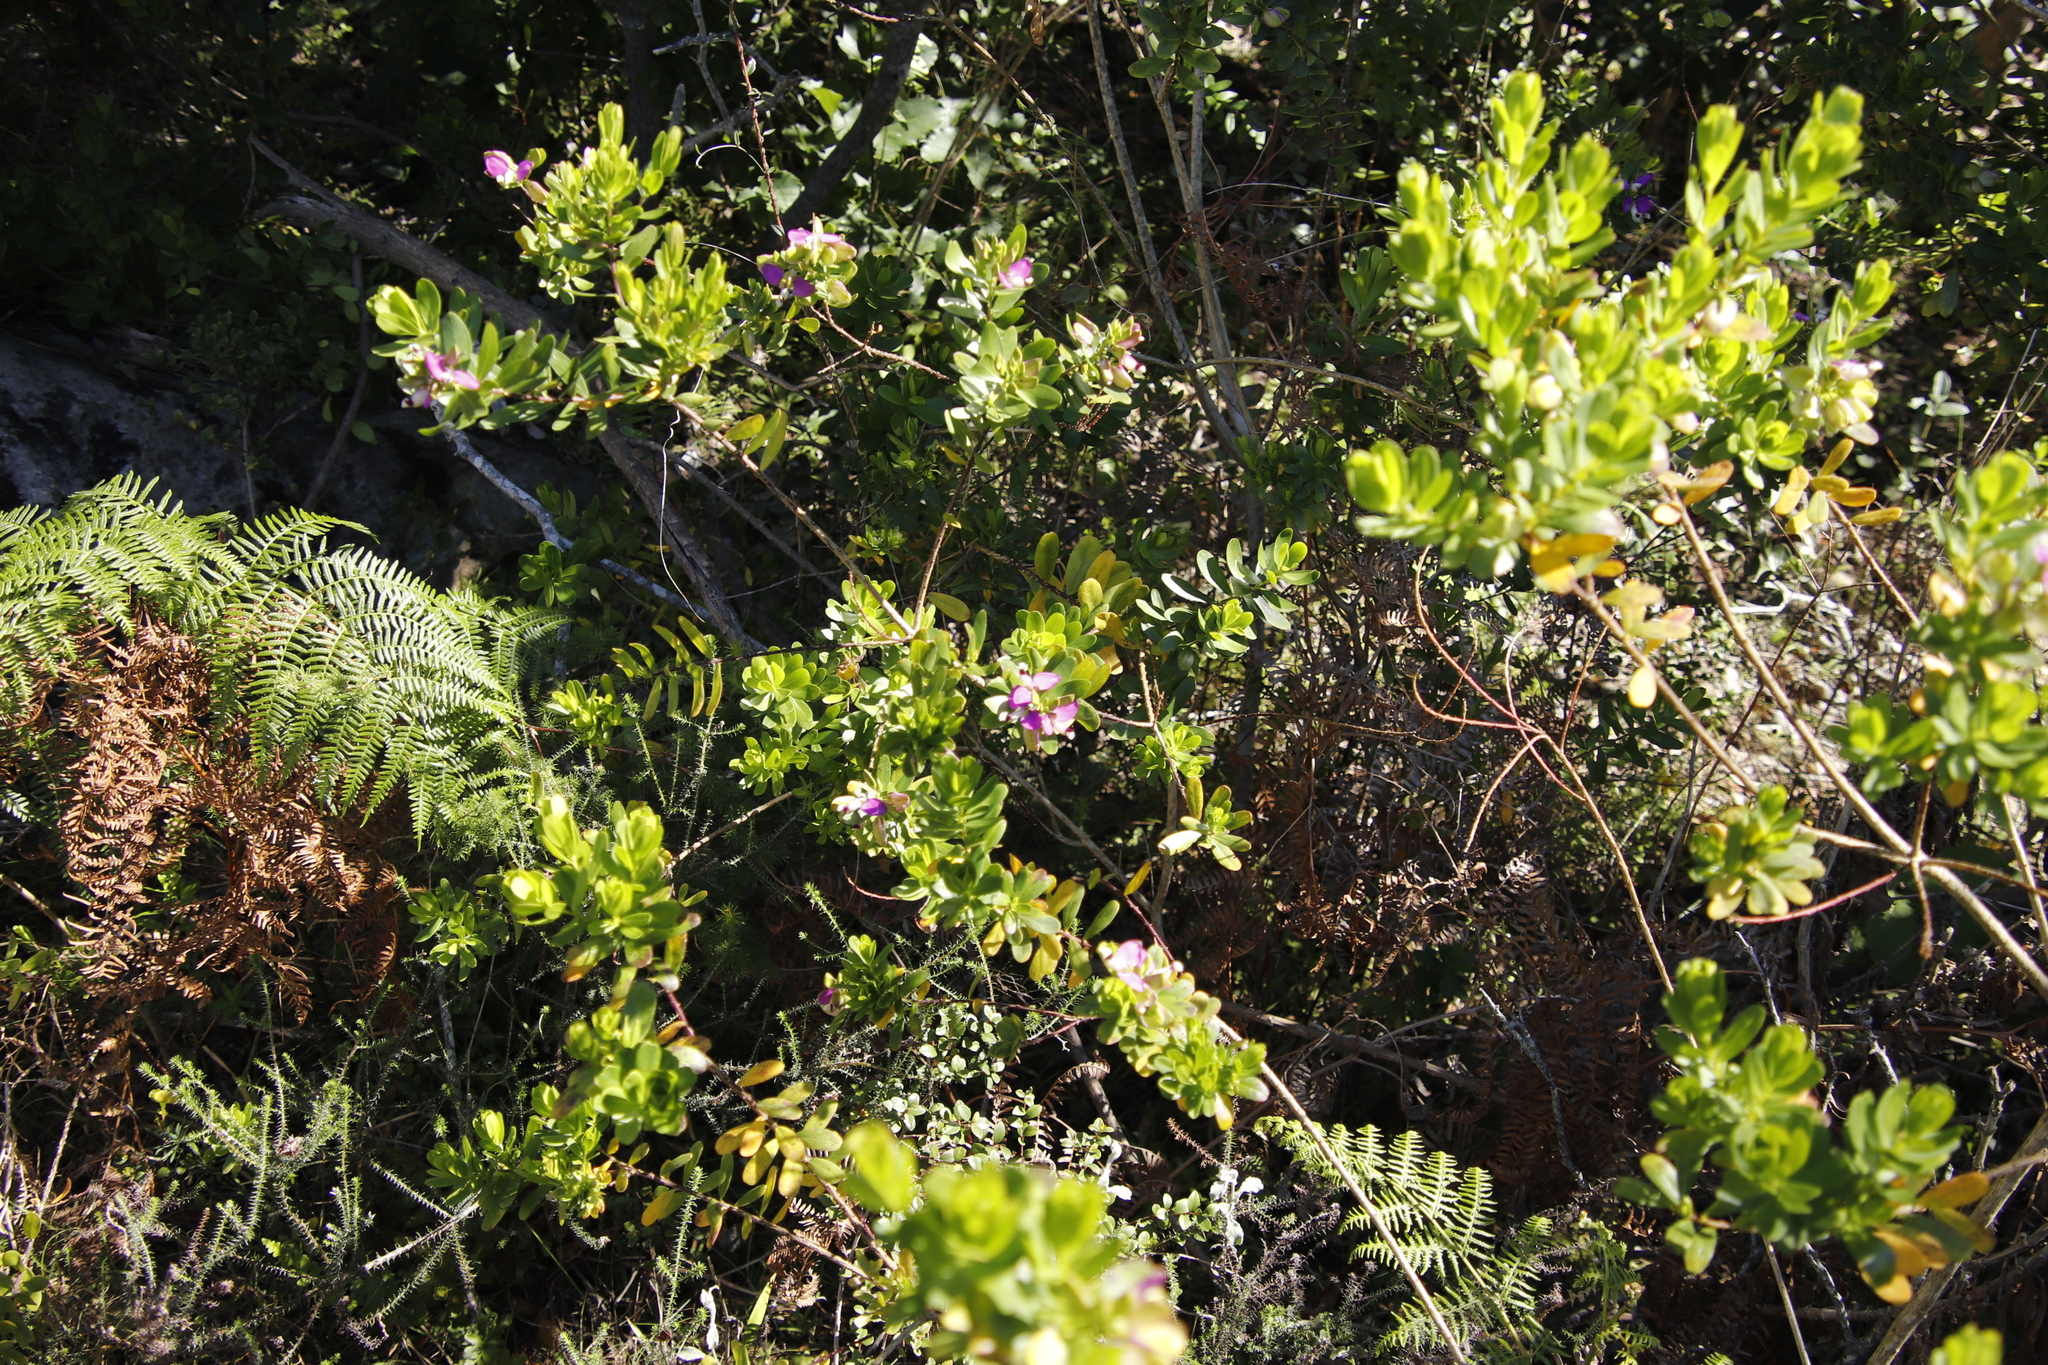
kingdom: Plantae
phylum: Tracheophyta
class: Magnoliopsida
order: Fabales
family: Polygalaceae
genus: Polygala
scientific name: Polygala myrtifolia
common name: Myrtle-leaf milkwort
